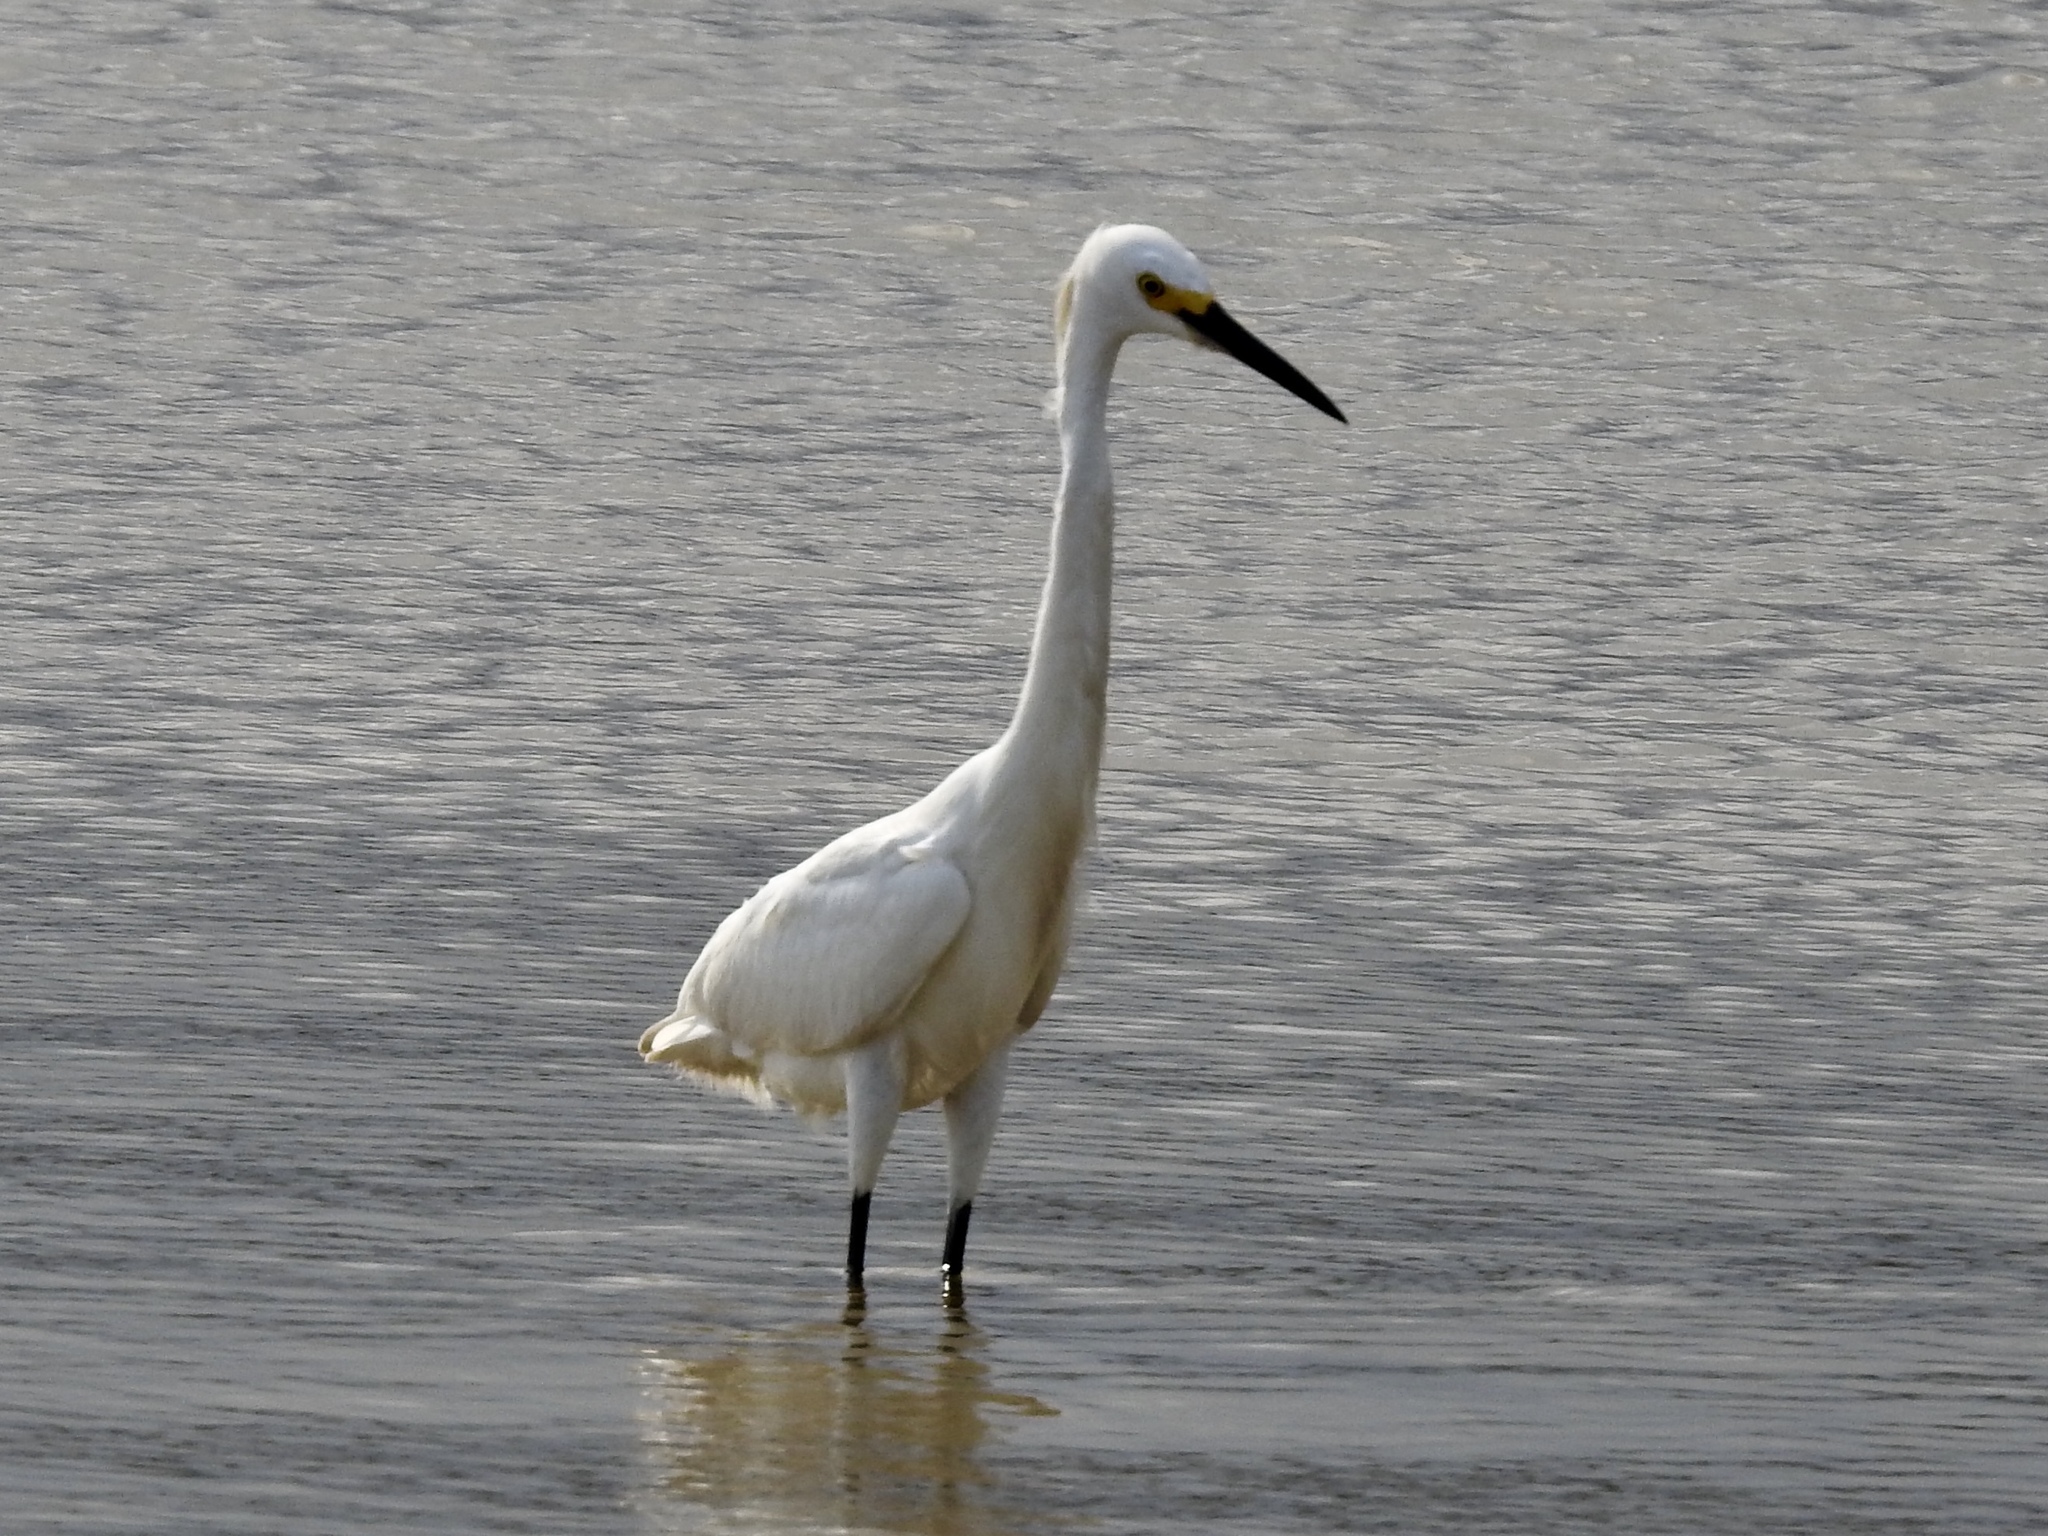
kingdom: Animalia
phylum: Chordata
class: Aves
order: Pelecaniformes
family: Ardeidae
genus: Egretta
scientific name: Egretta thula
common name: Snowy egret
